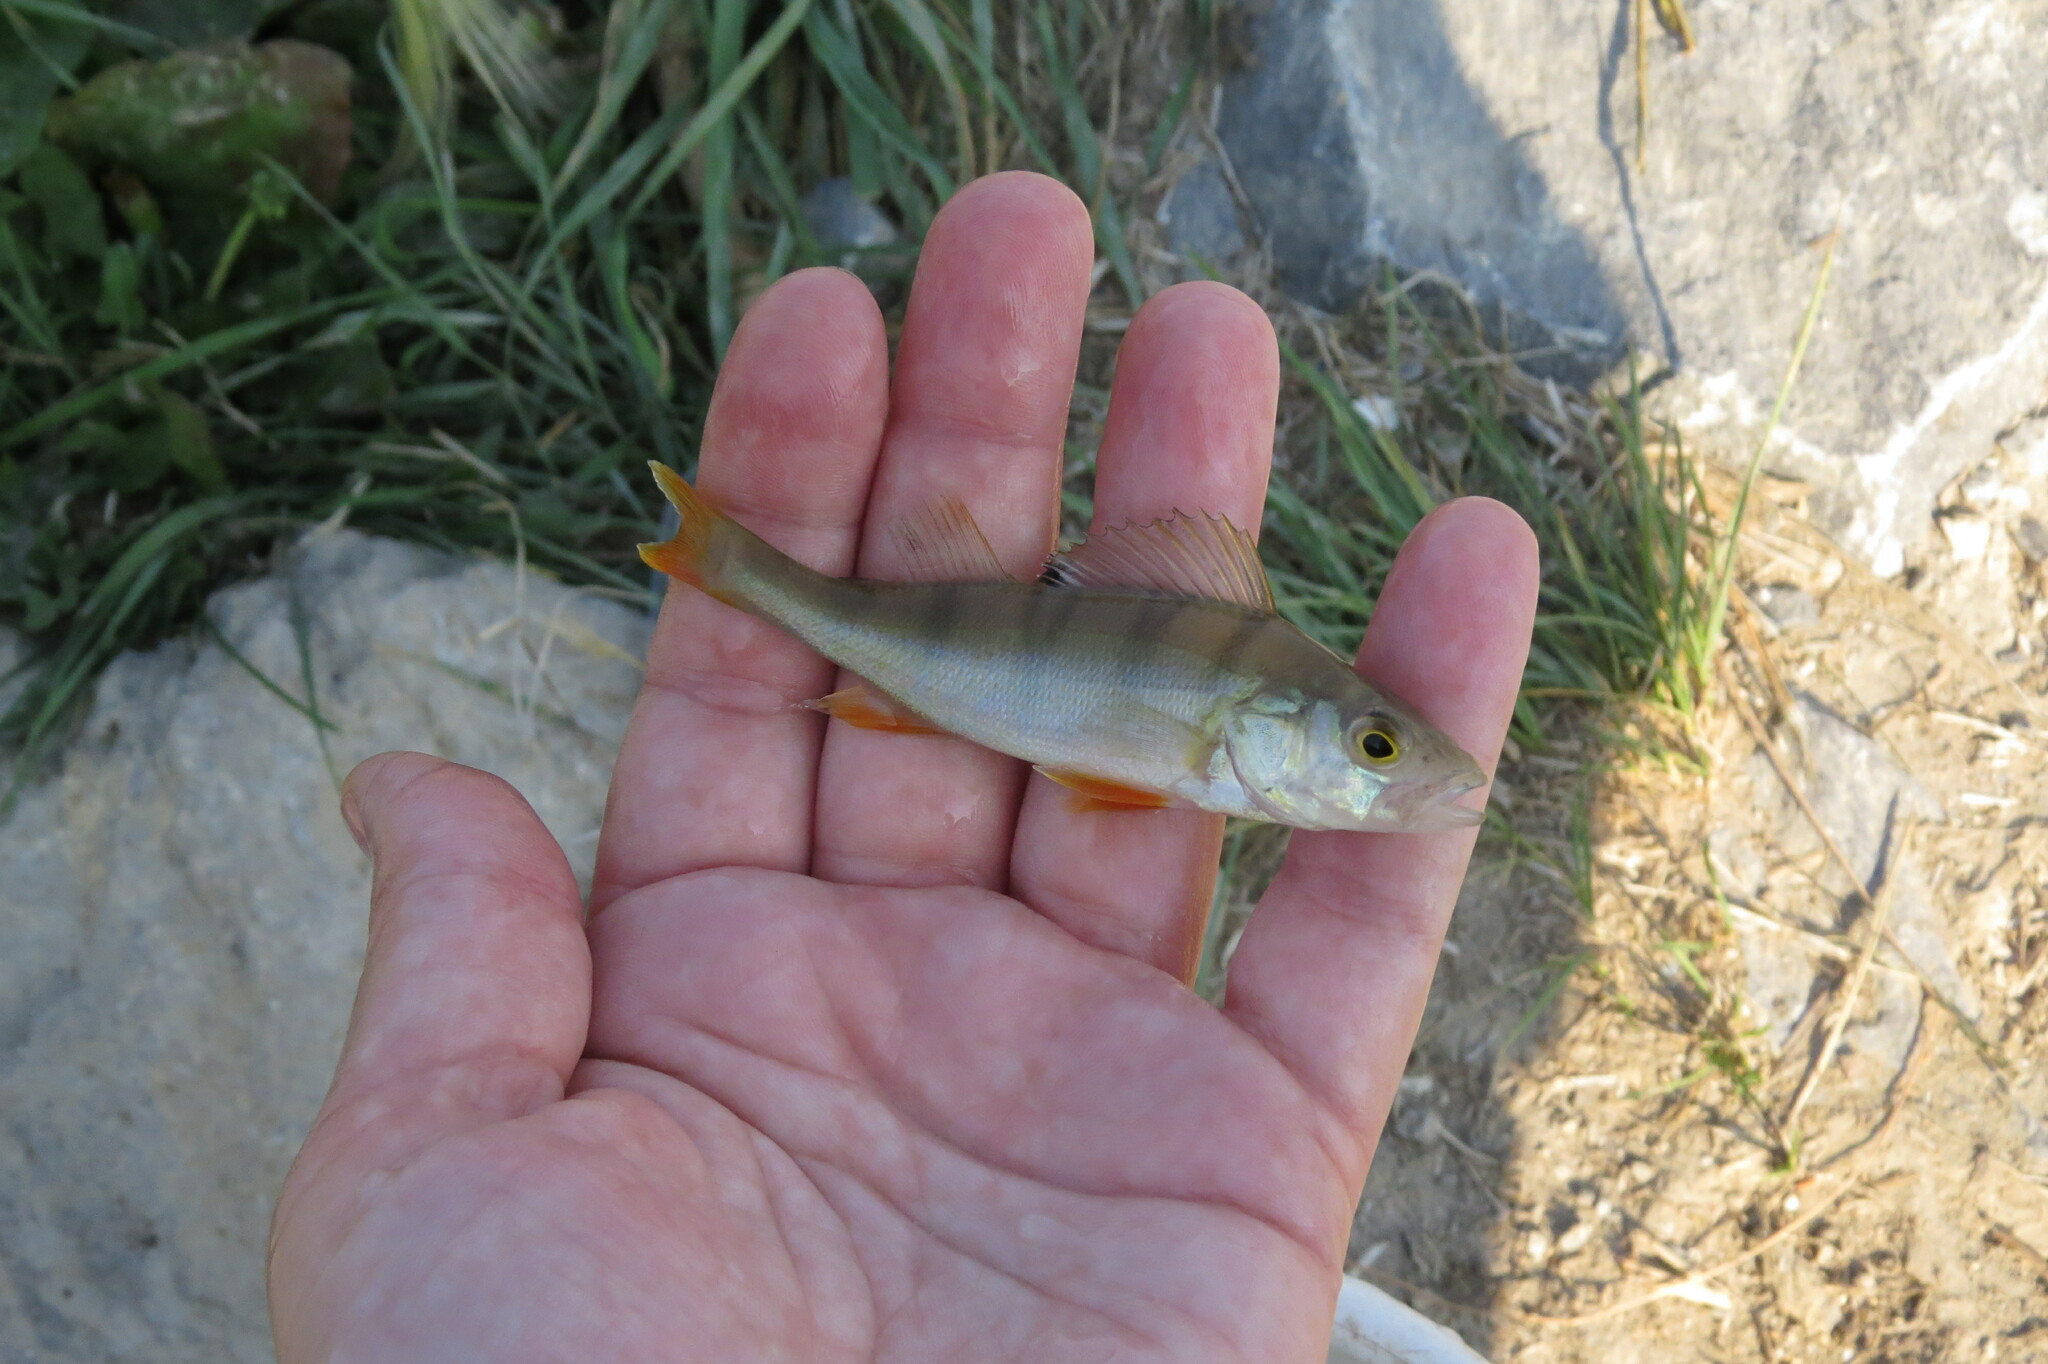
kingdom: Animalia
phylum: Chordata
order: Perciformes
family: Percidae
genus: Perca
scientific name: Perca fluviatilis
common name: Perch
